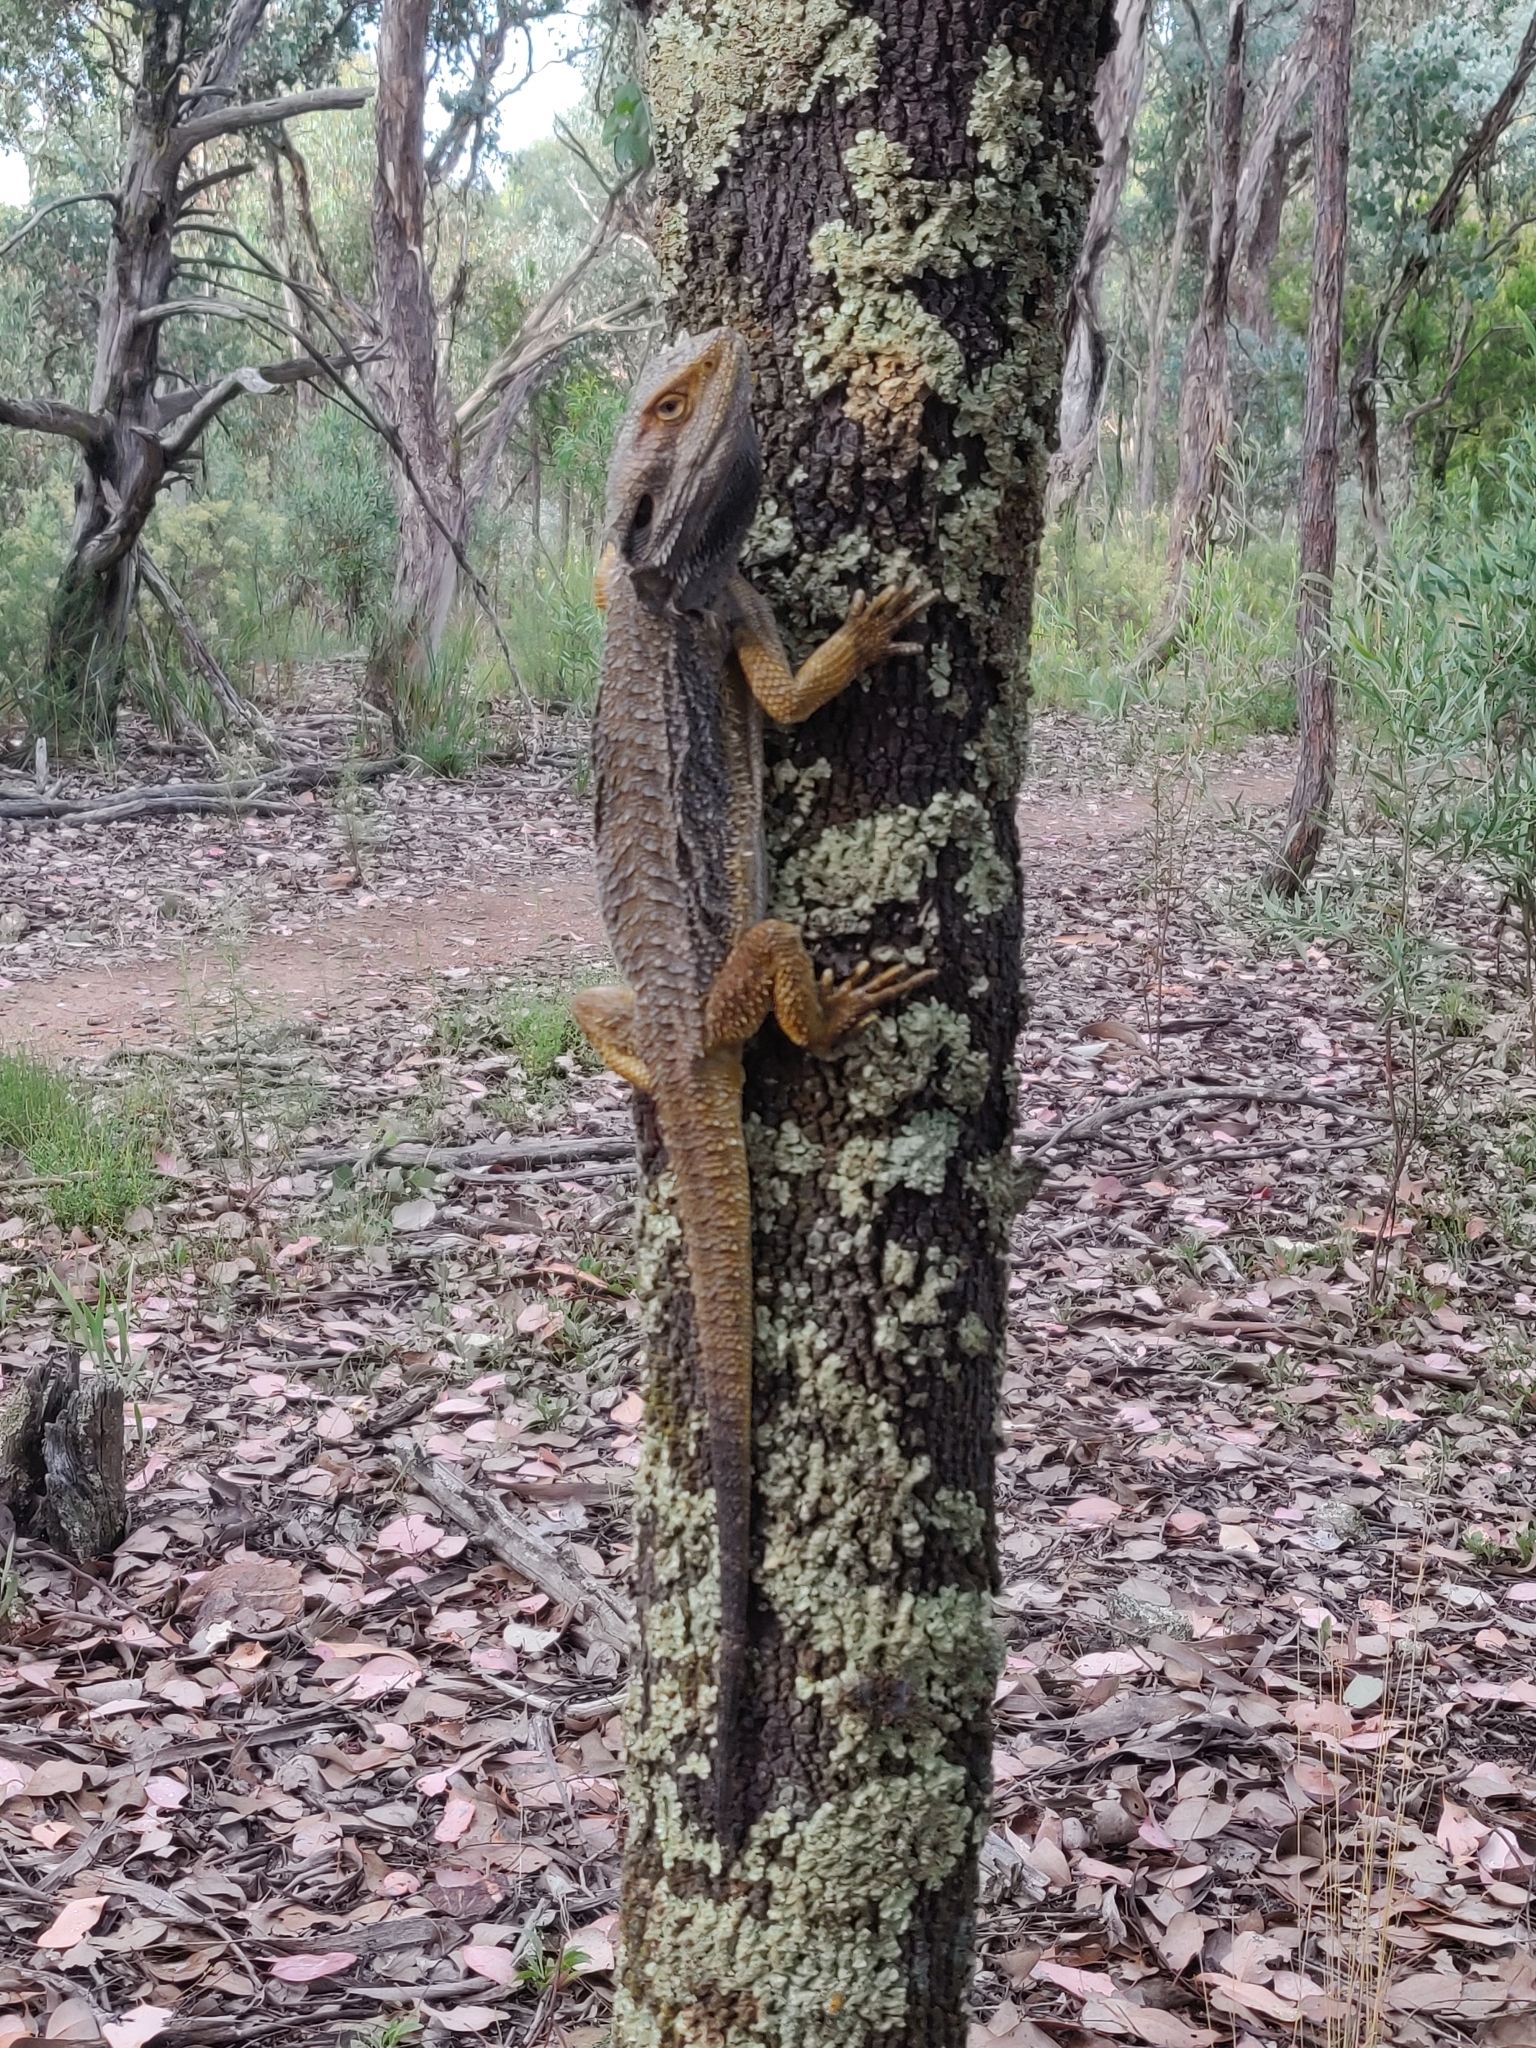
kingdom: Animalia
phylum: Chordata
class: Squamata
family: Agamidae
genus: Pogona
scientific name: Pogona barbata
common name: Bearded dragon
